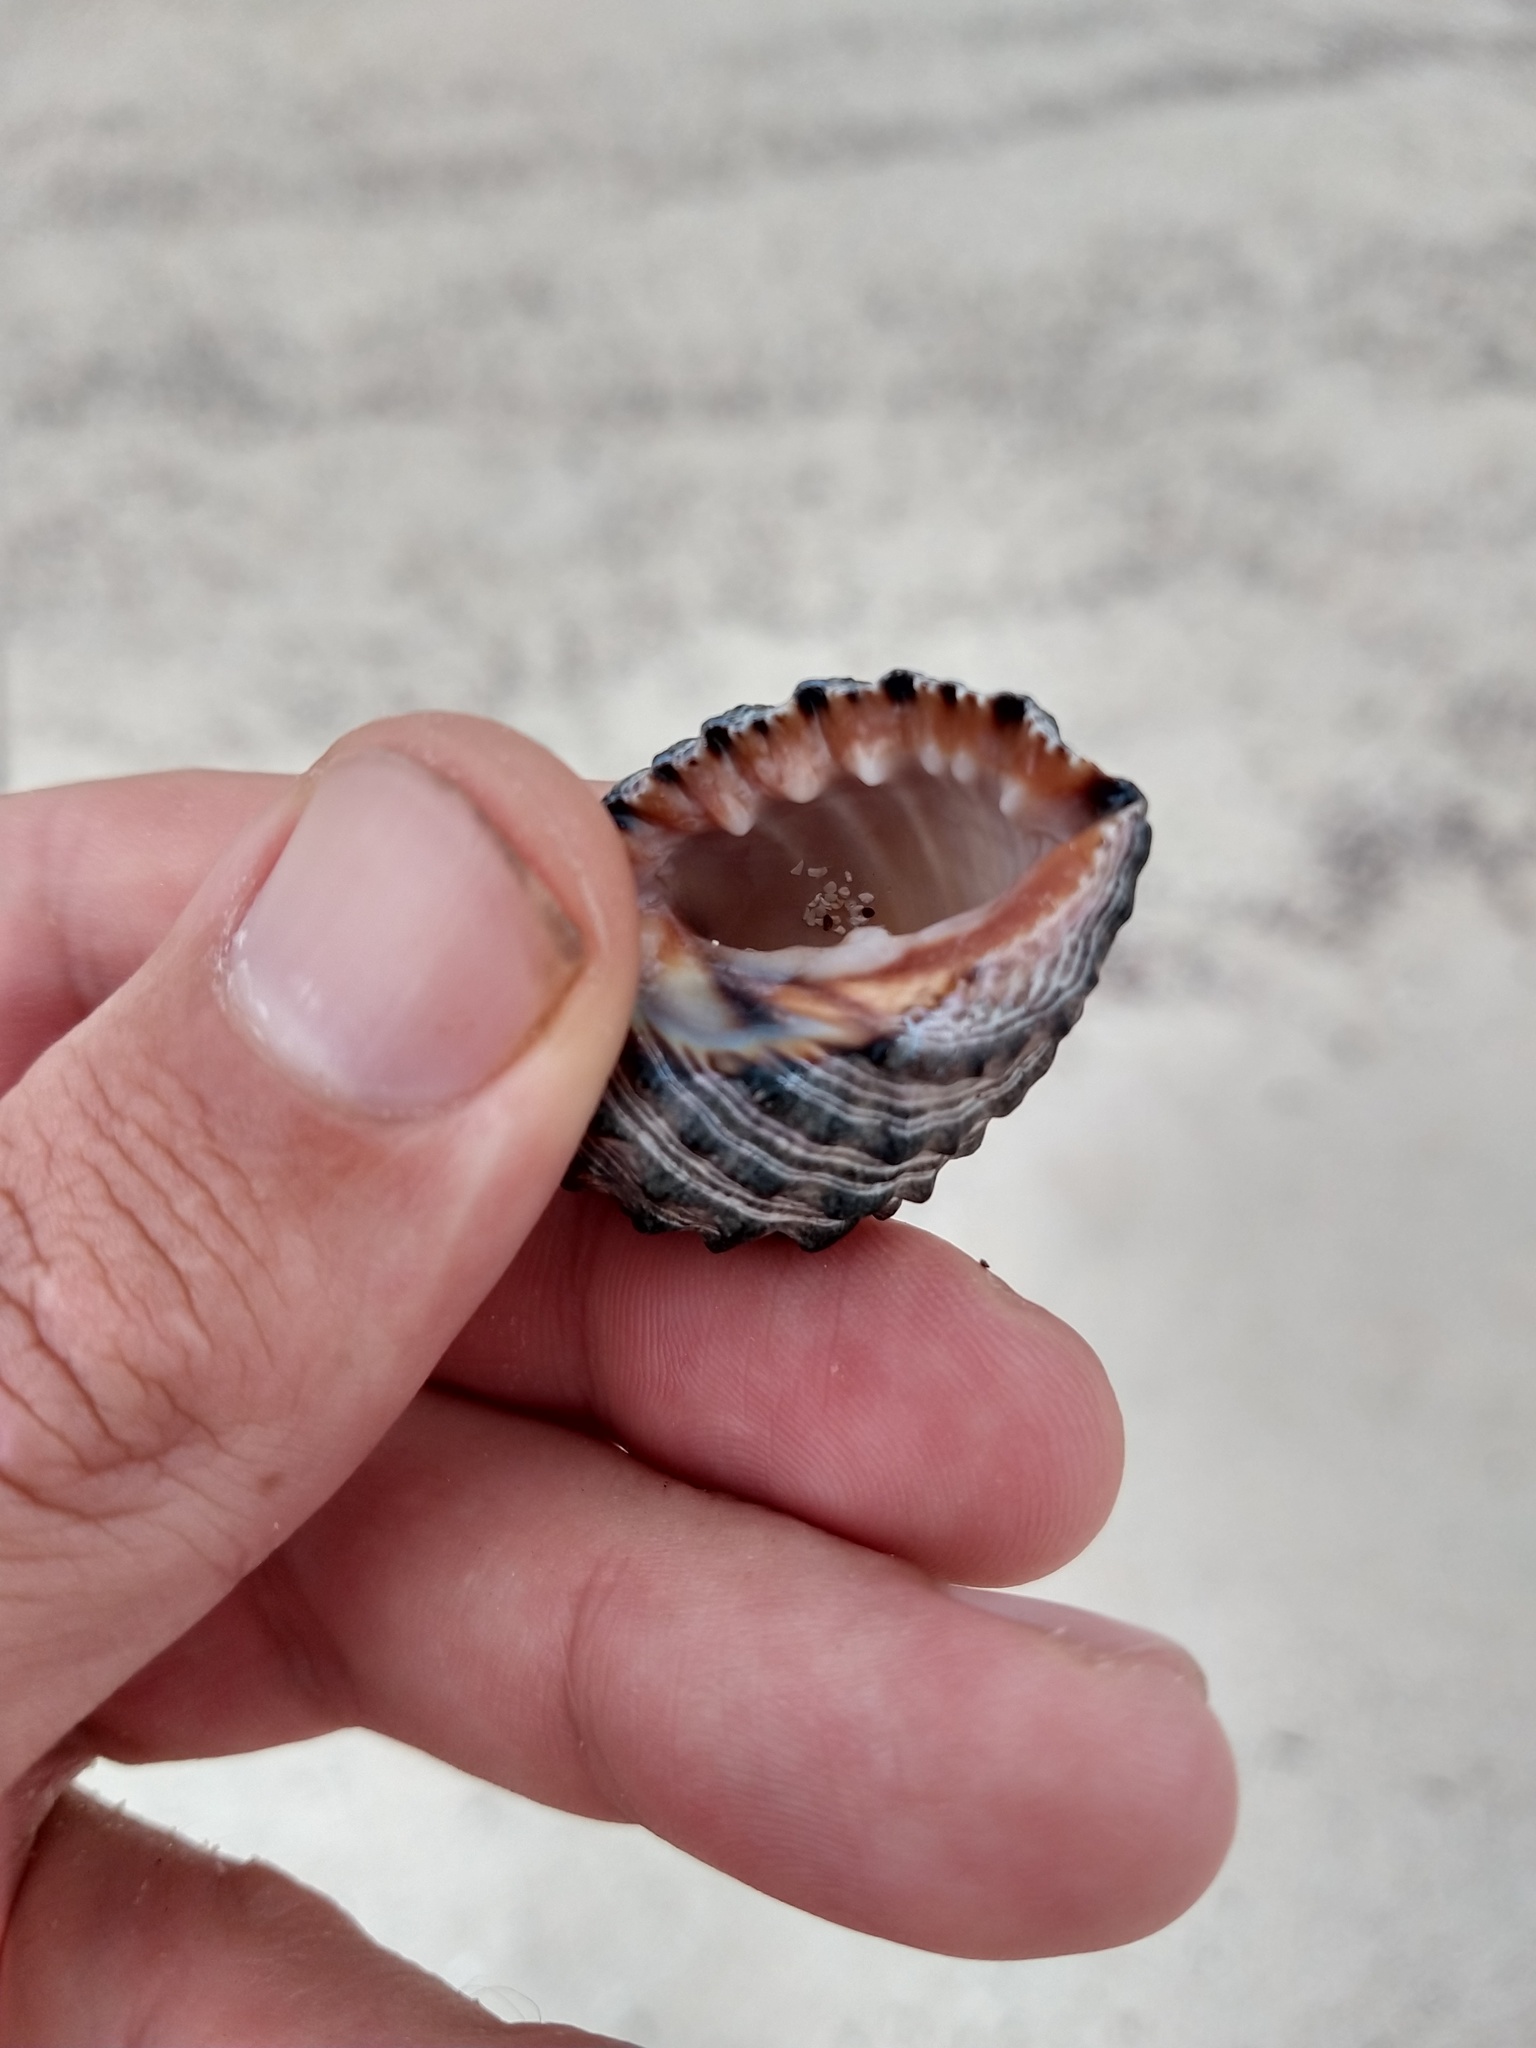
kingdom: Animalia
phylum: Mollusca
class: Gastropoda
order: Neogastropoda
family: Muricidae
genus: Plicopurpura
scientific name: Plicopurpura columellaris
